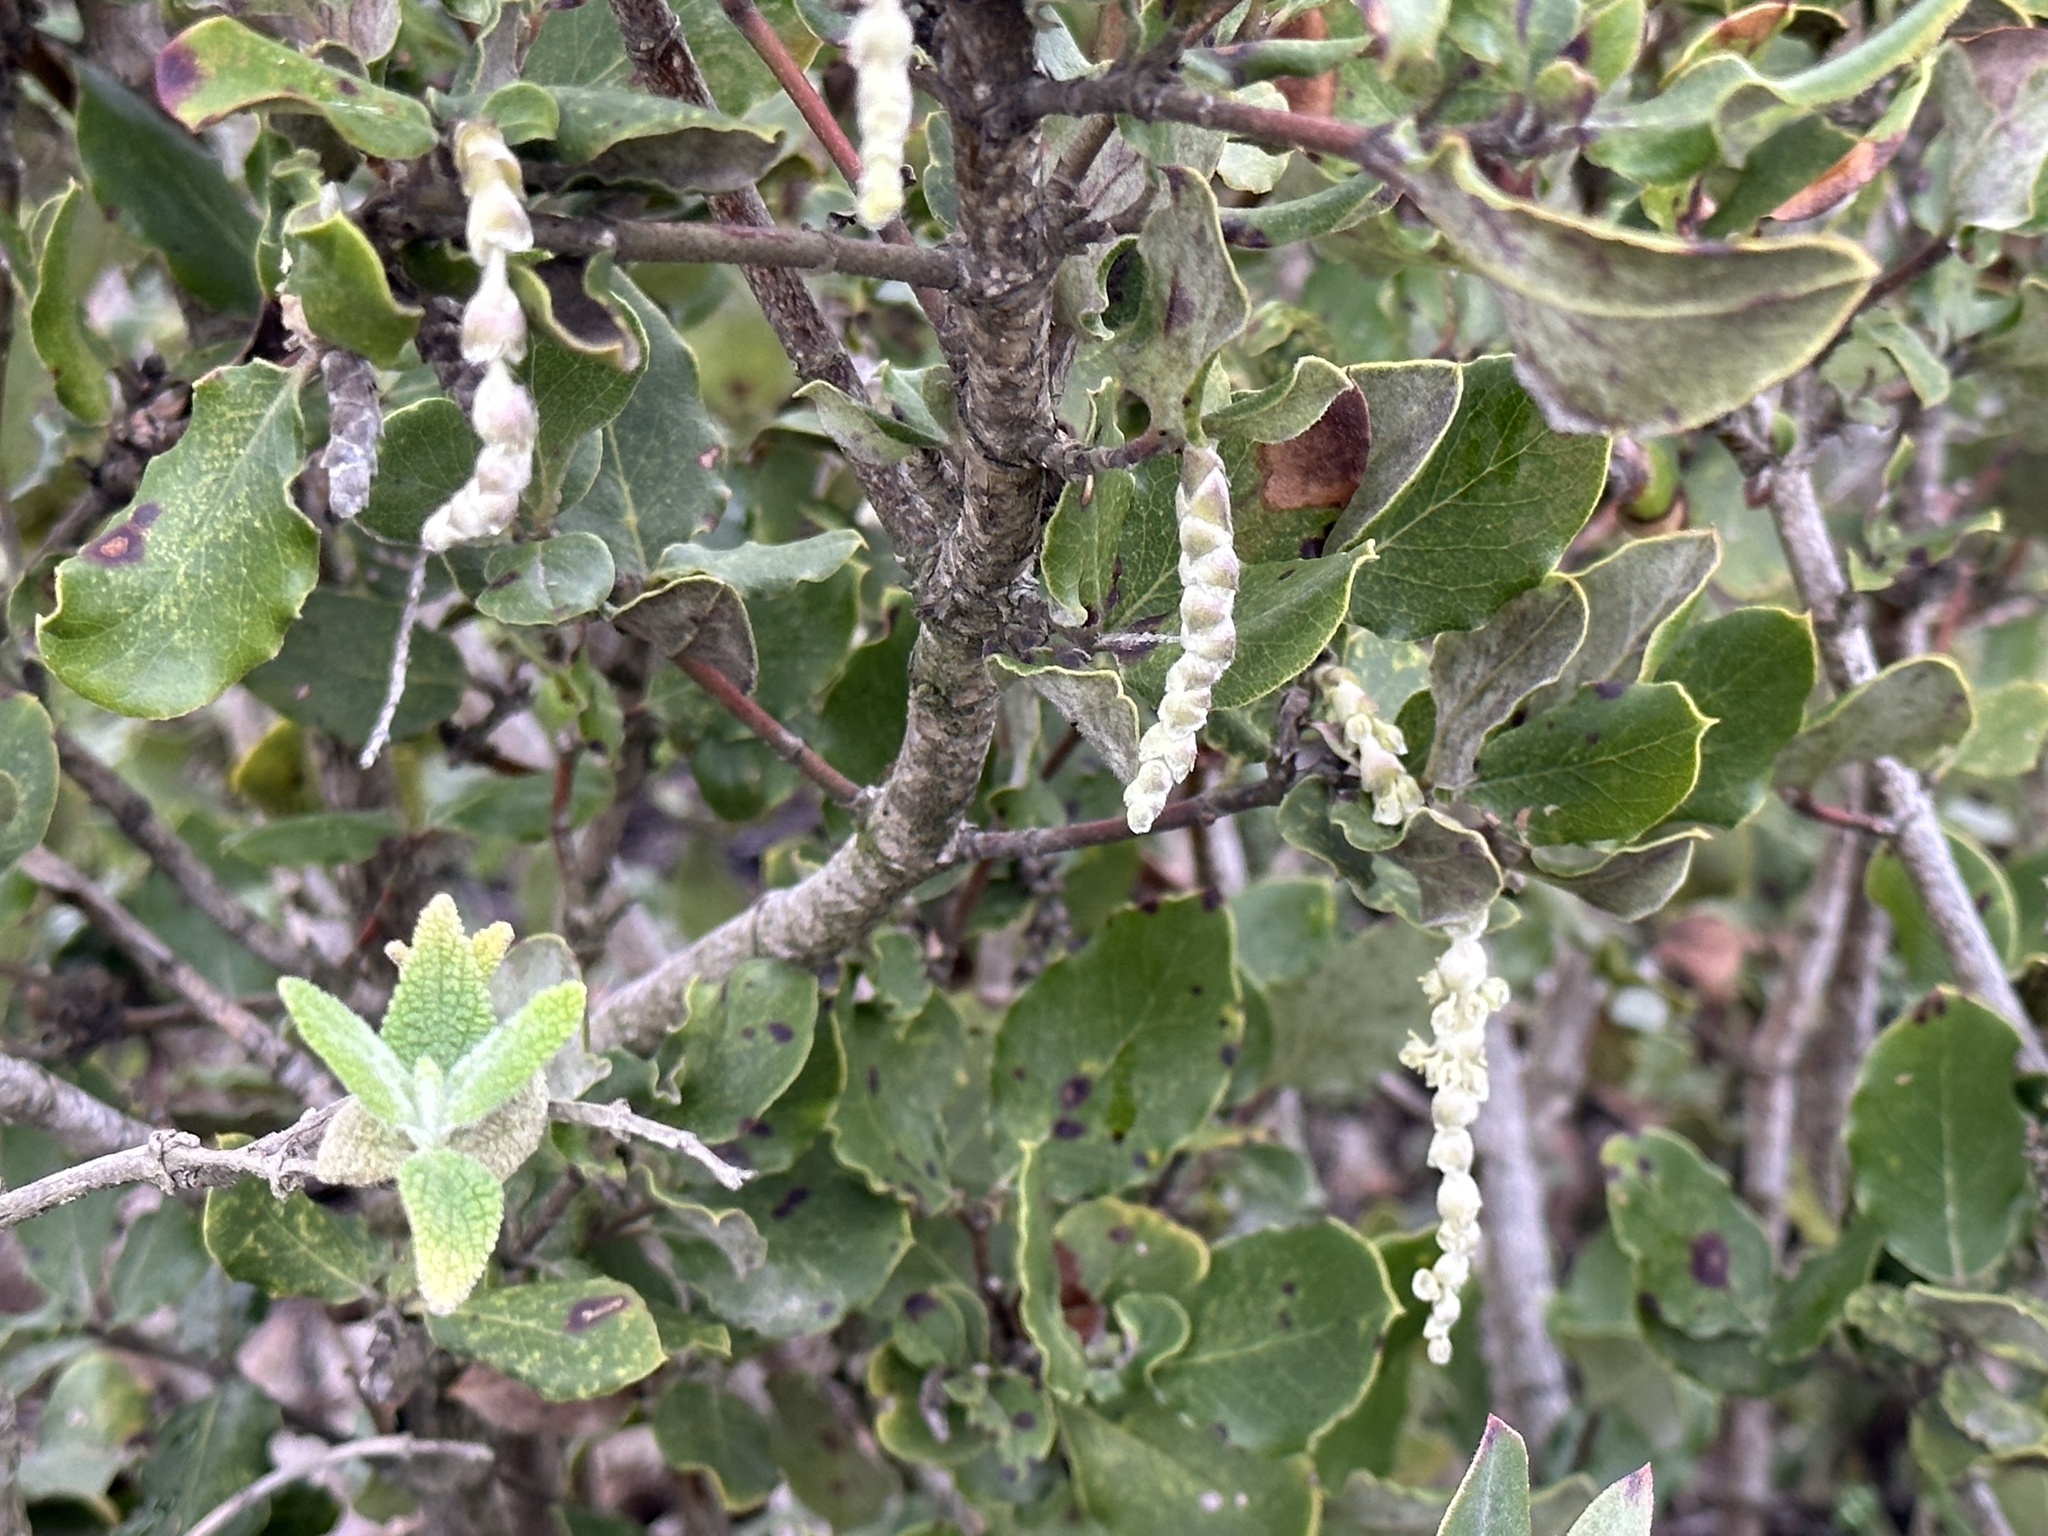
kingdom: Plantae
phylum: Tracheophyta
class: Magnoliopsida
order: Garryales
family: Garryaceae
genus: Garrya
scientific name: Garrya elliptica
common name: Silk-tassel
